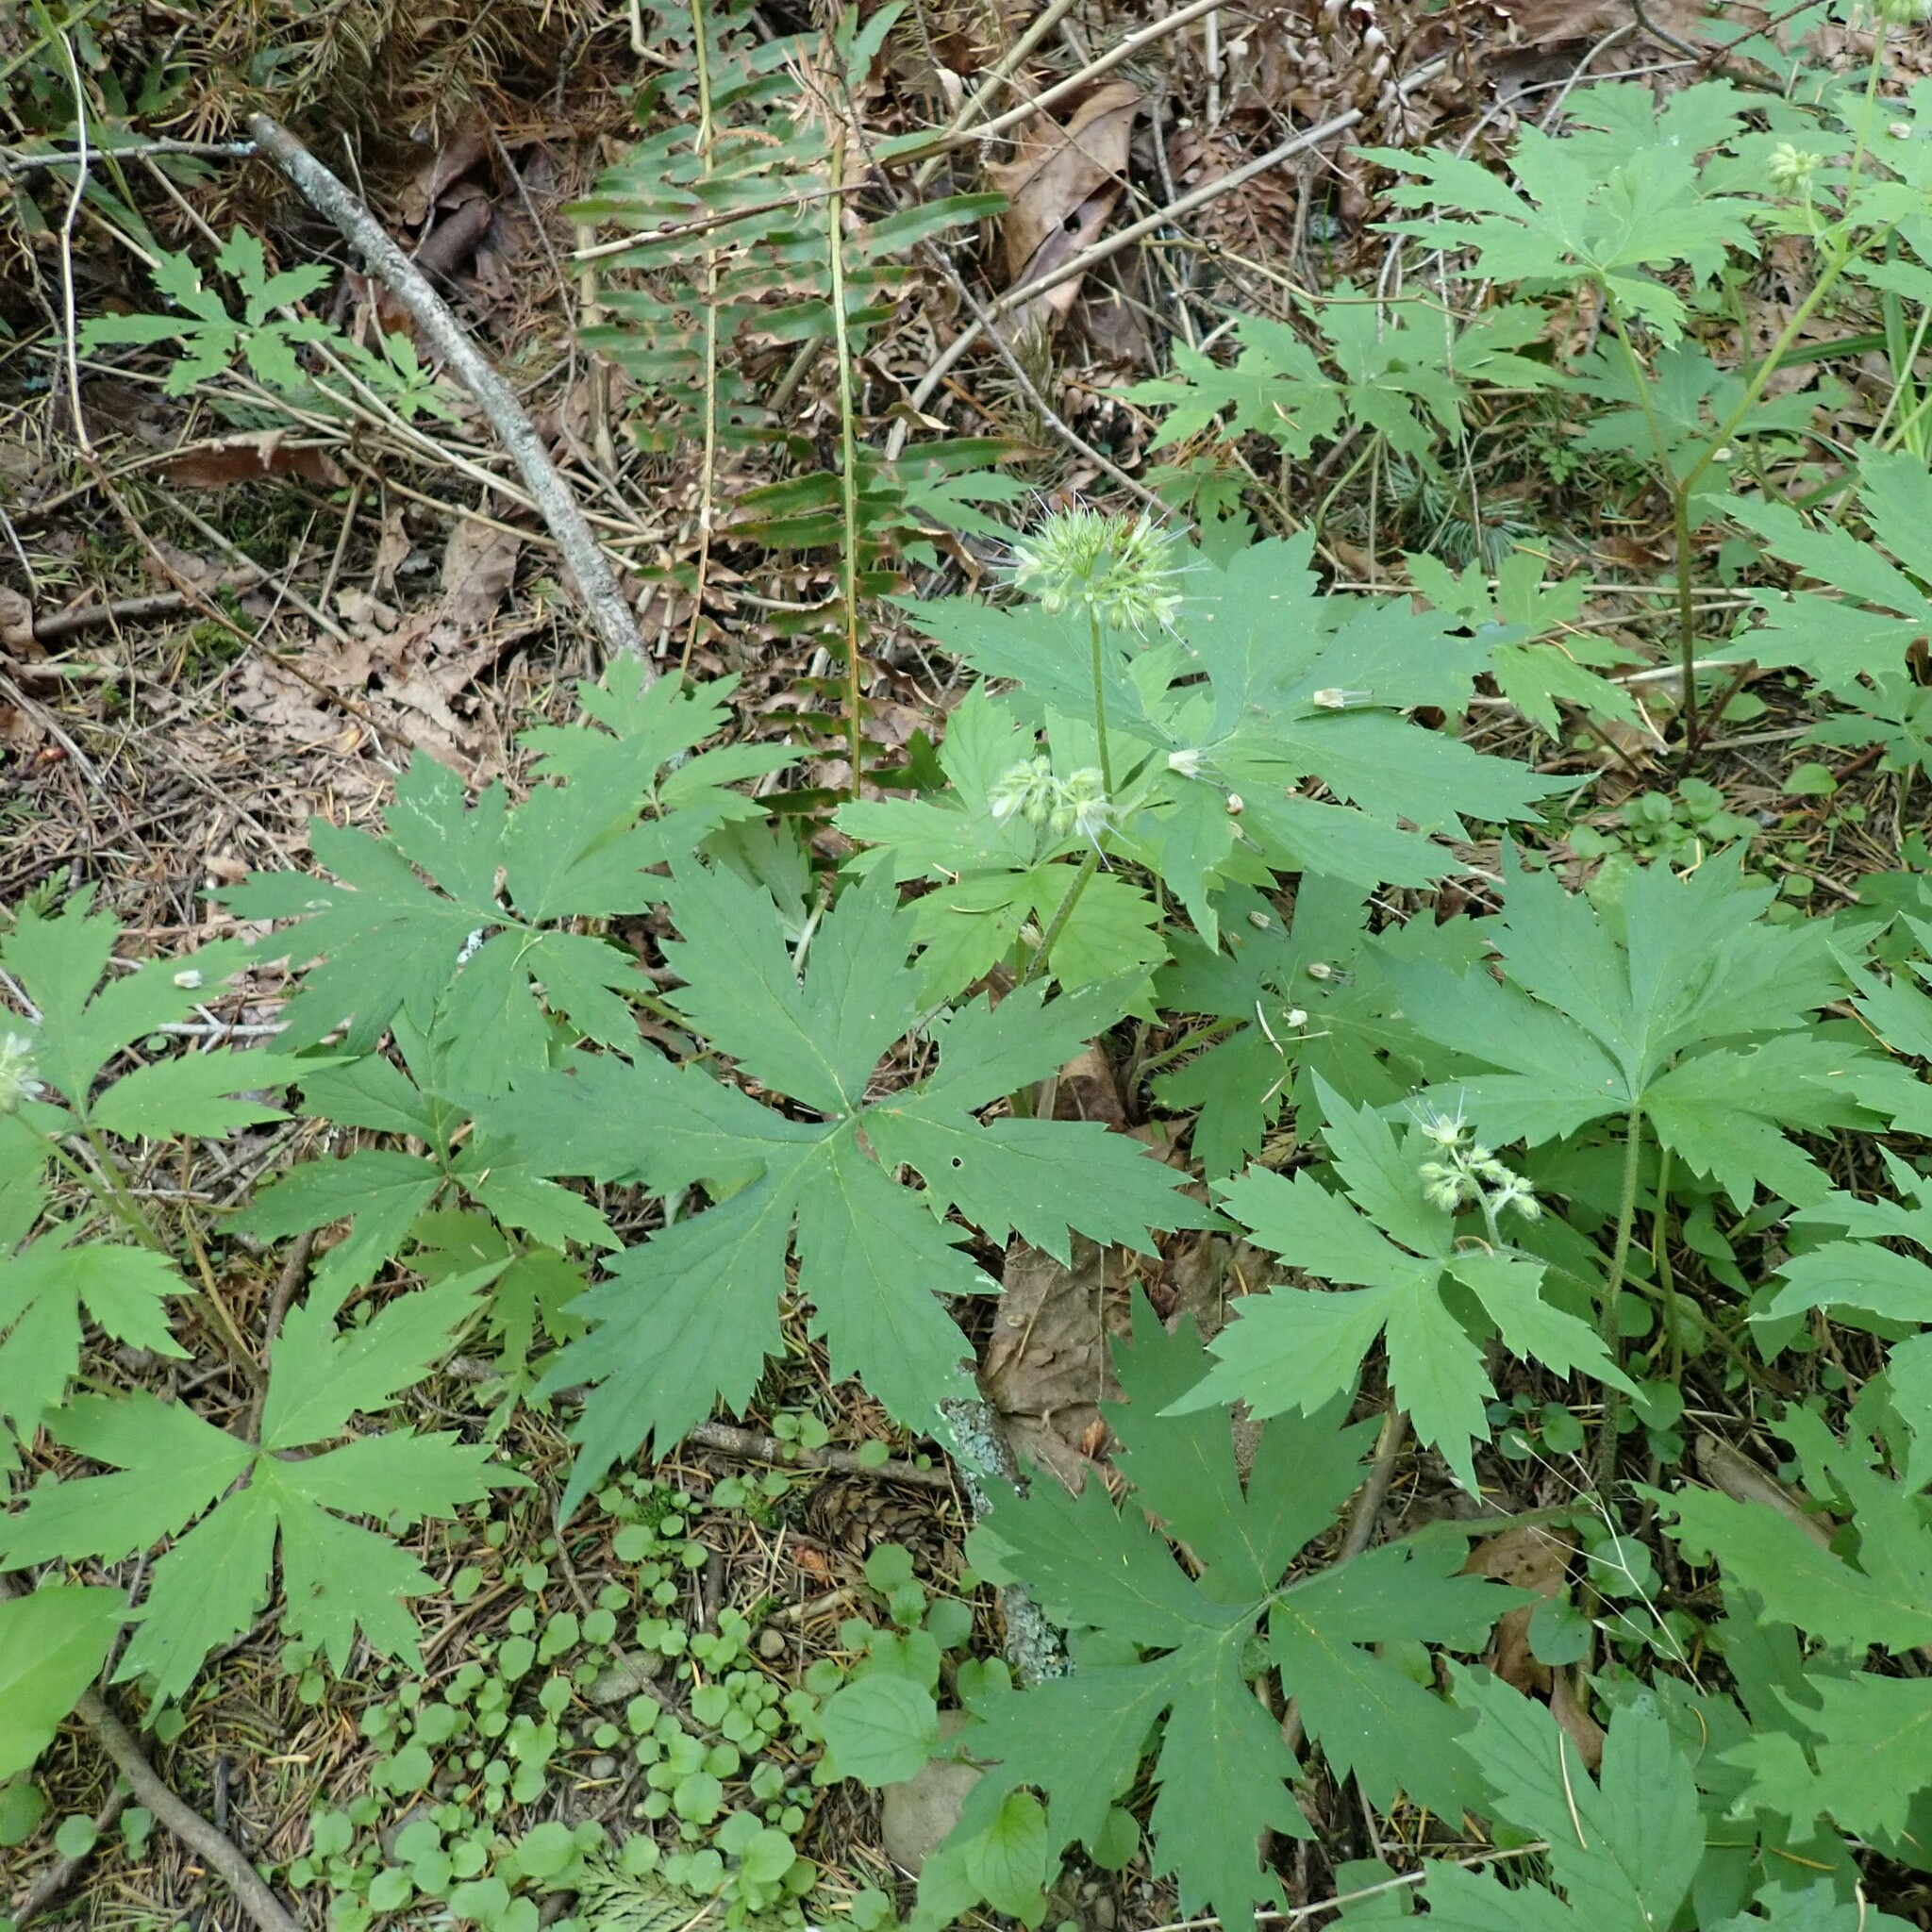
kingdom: Plantae
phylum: Tracheophyta
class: Magnoliopsida
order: Boraginales
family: Hydrophyllaceae
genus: Hydrophyllum
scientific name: Hydrophyllum tenuipes
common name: Pacific waterleaf
